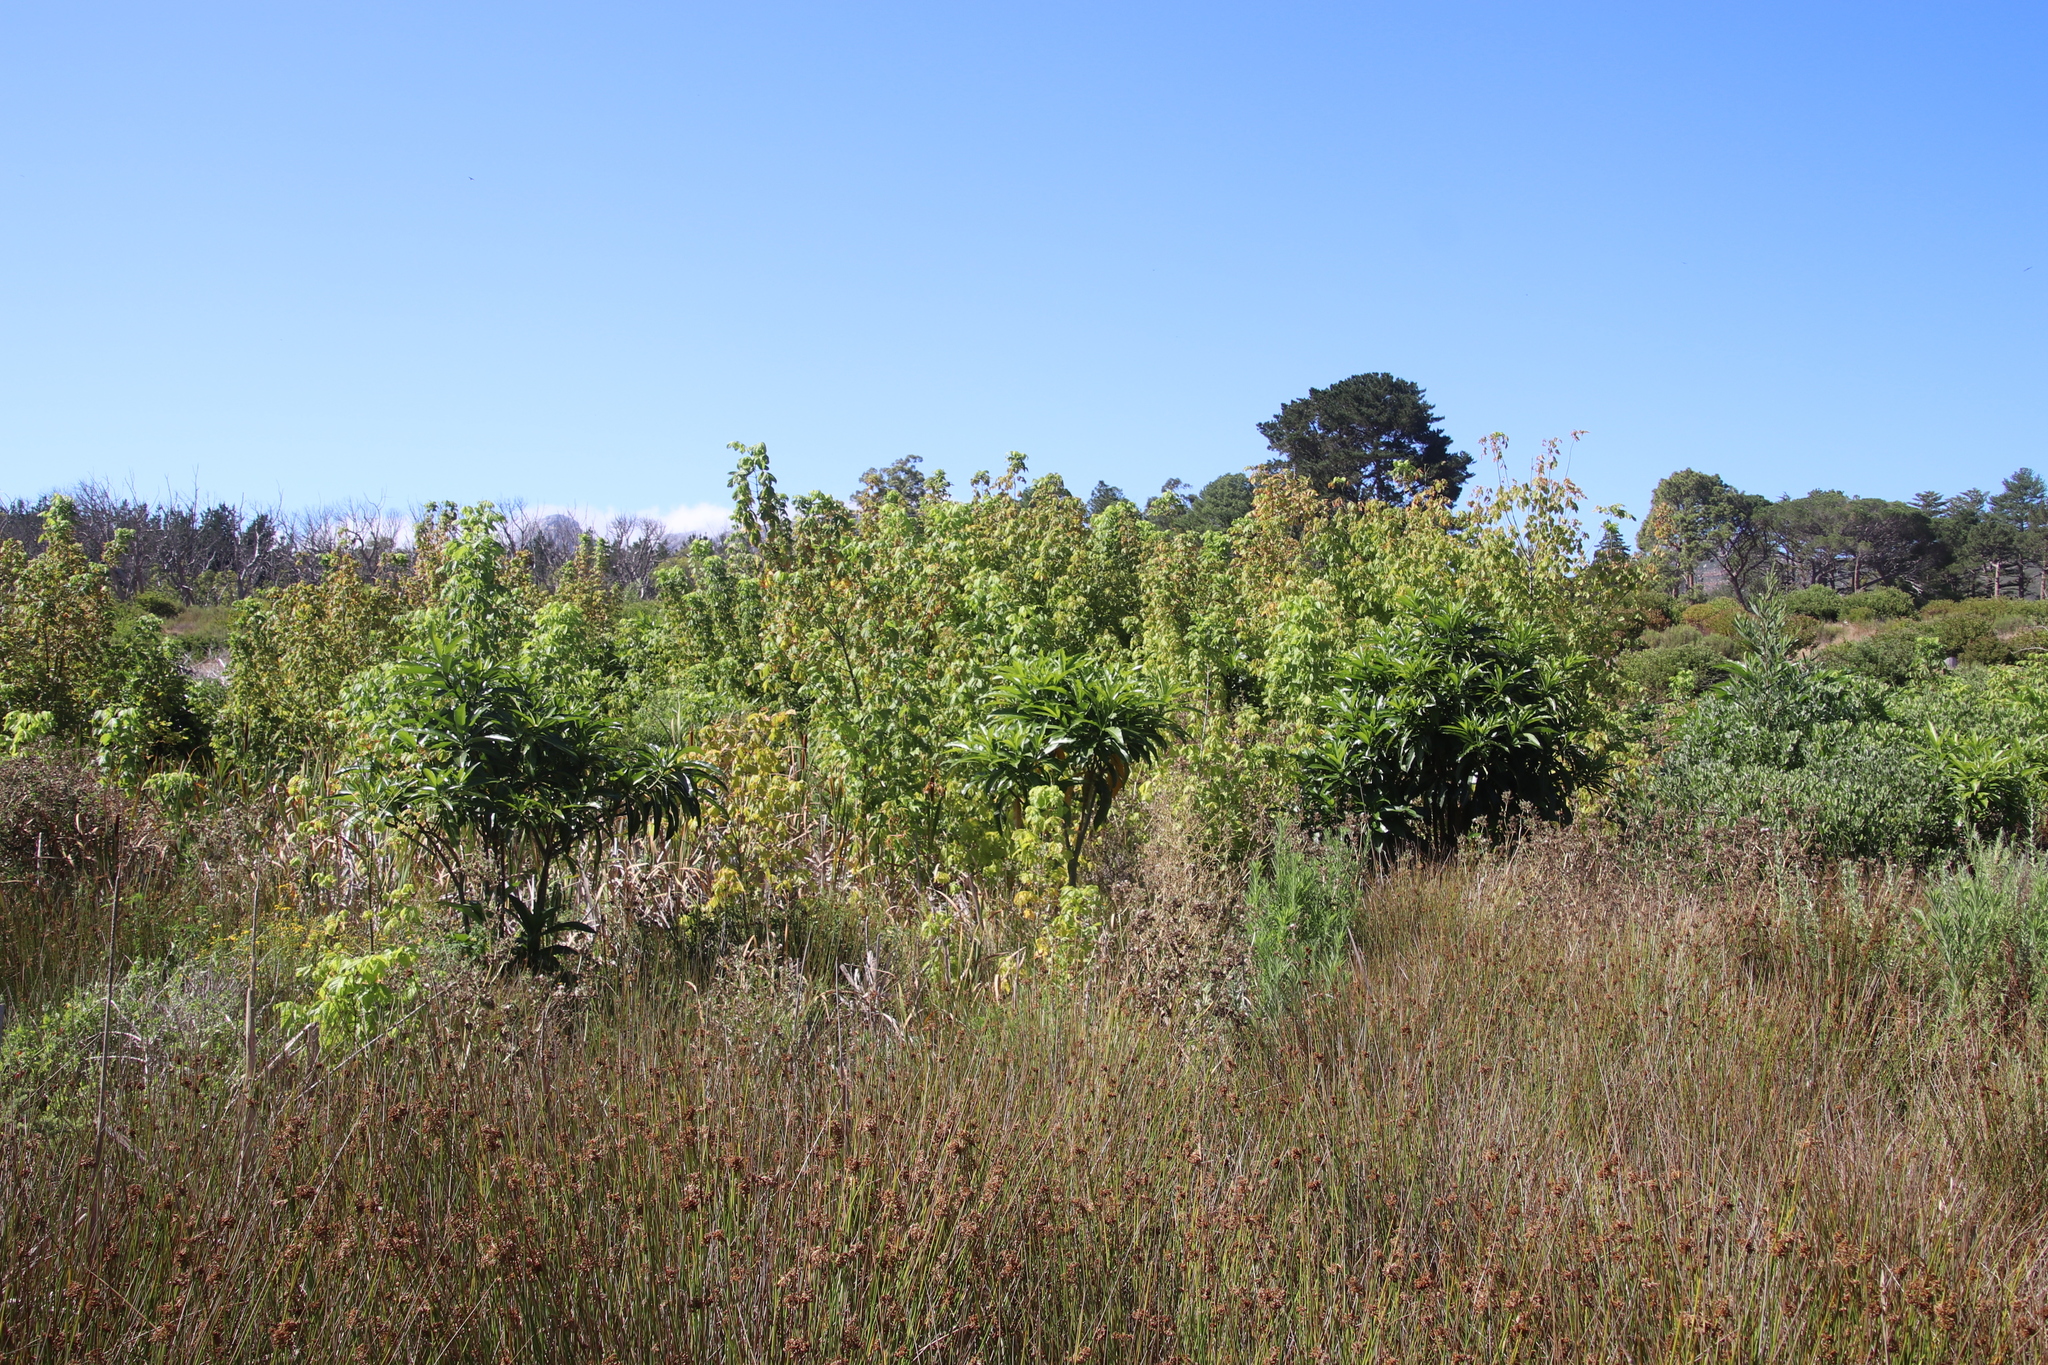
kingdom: Plantae
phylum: Tracheophyta
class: Magnoliopsida
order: Sapindales
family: Sapindaceae
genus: Acer
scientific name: Acer negundo
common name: Ashleaf maple
